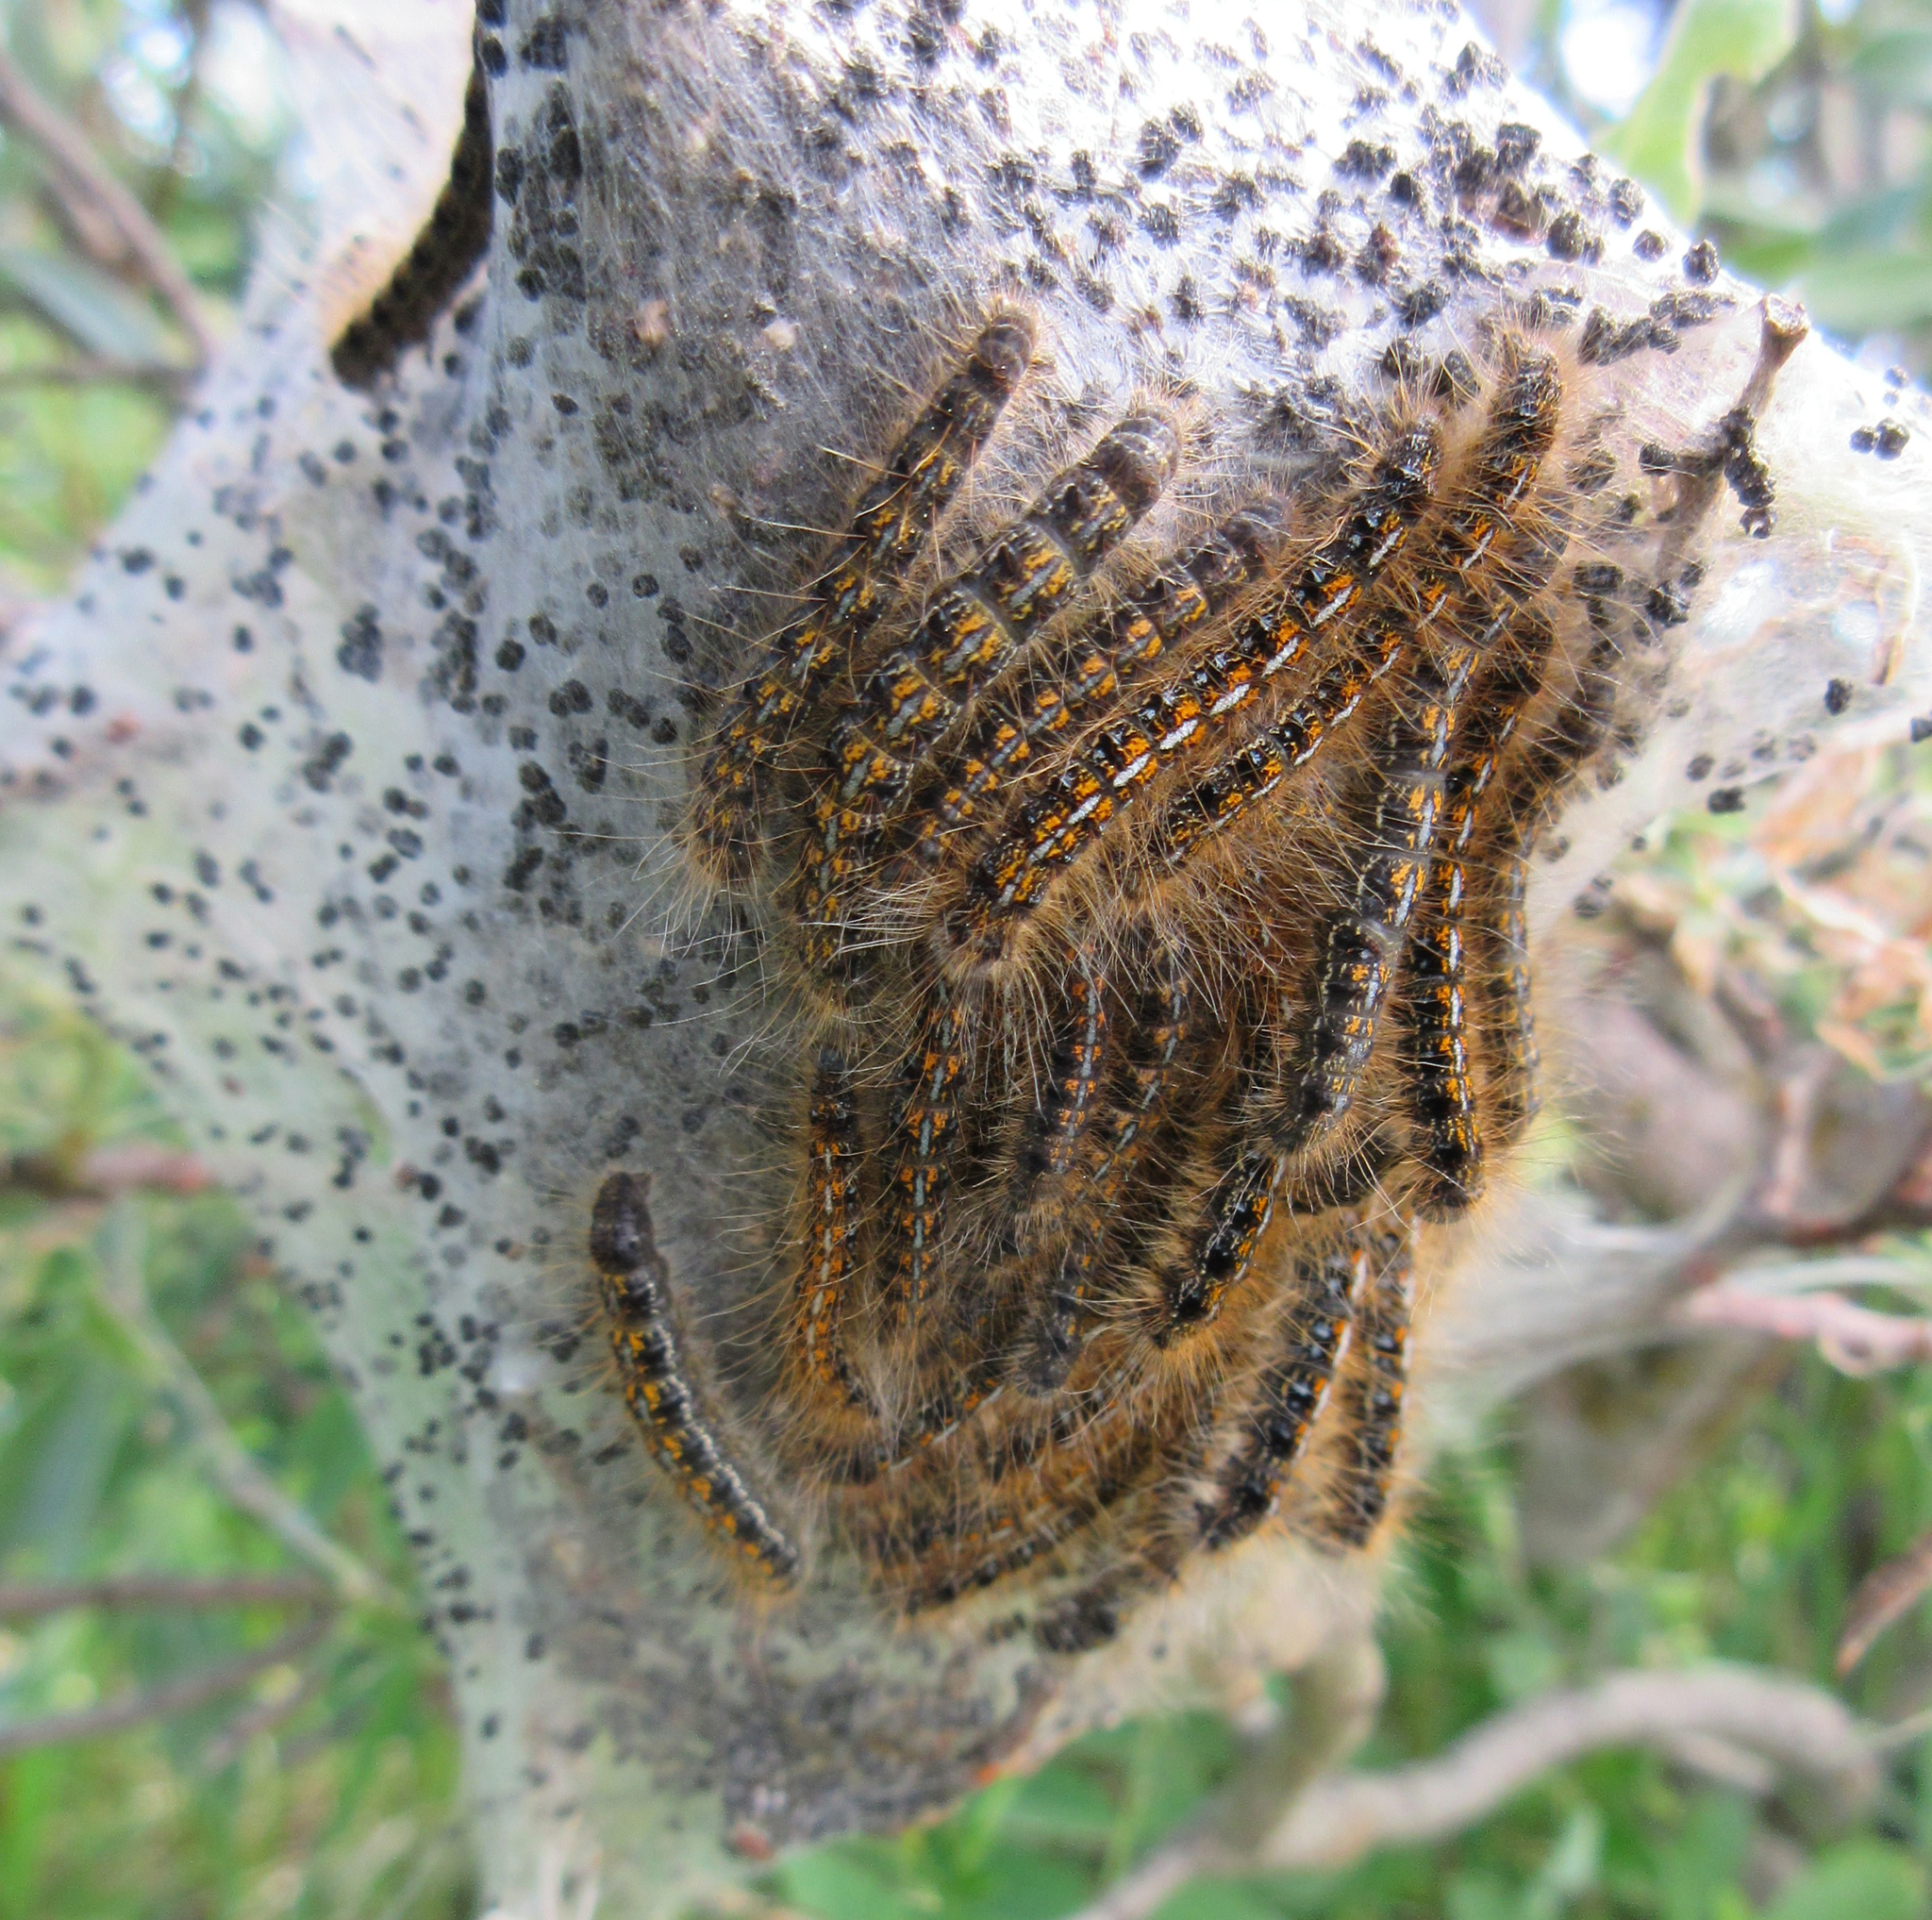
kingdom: Animalia
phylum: Arthropoda
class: Insecta
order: Lepidoptera
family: Lasiocampidae
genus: Malacosoma
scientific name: Malacosoma californica
